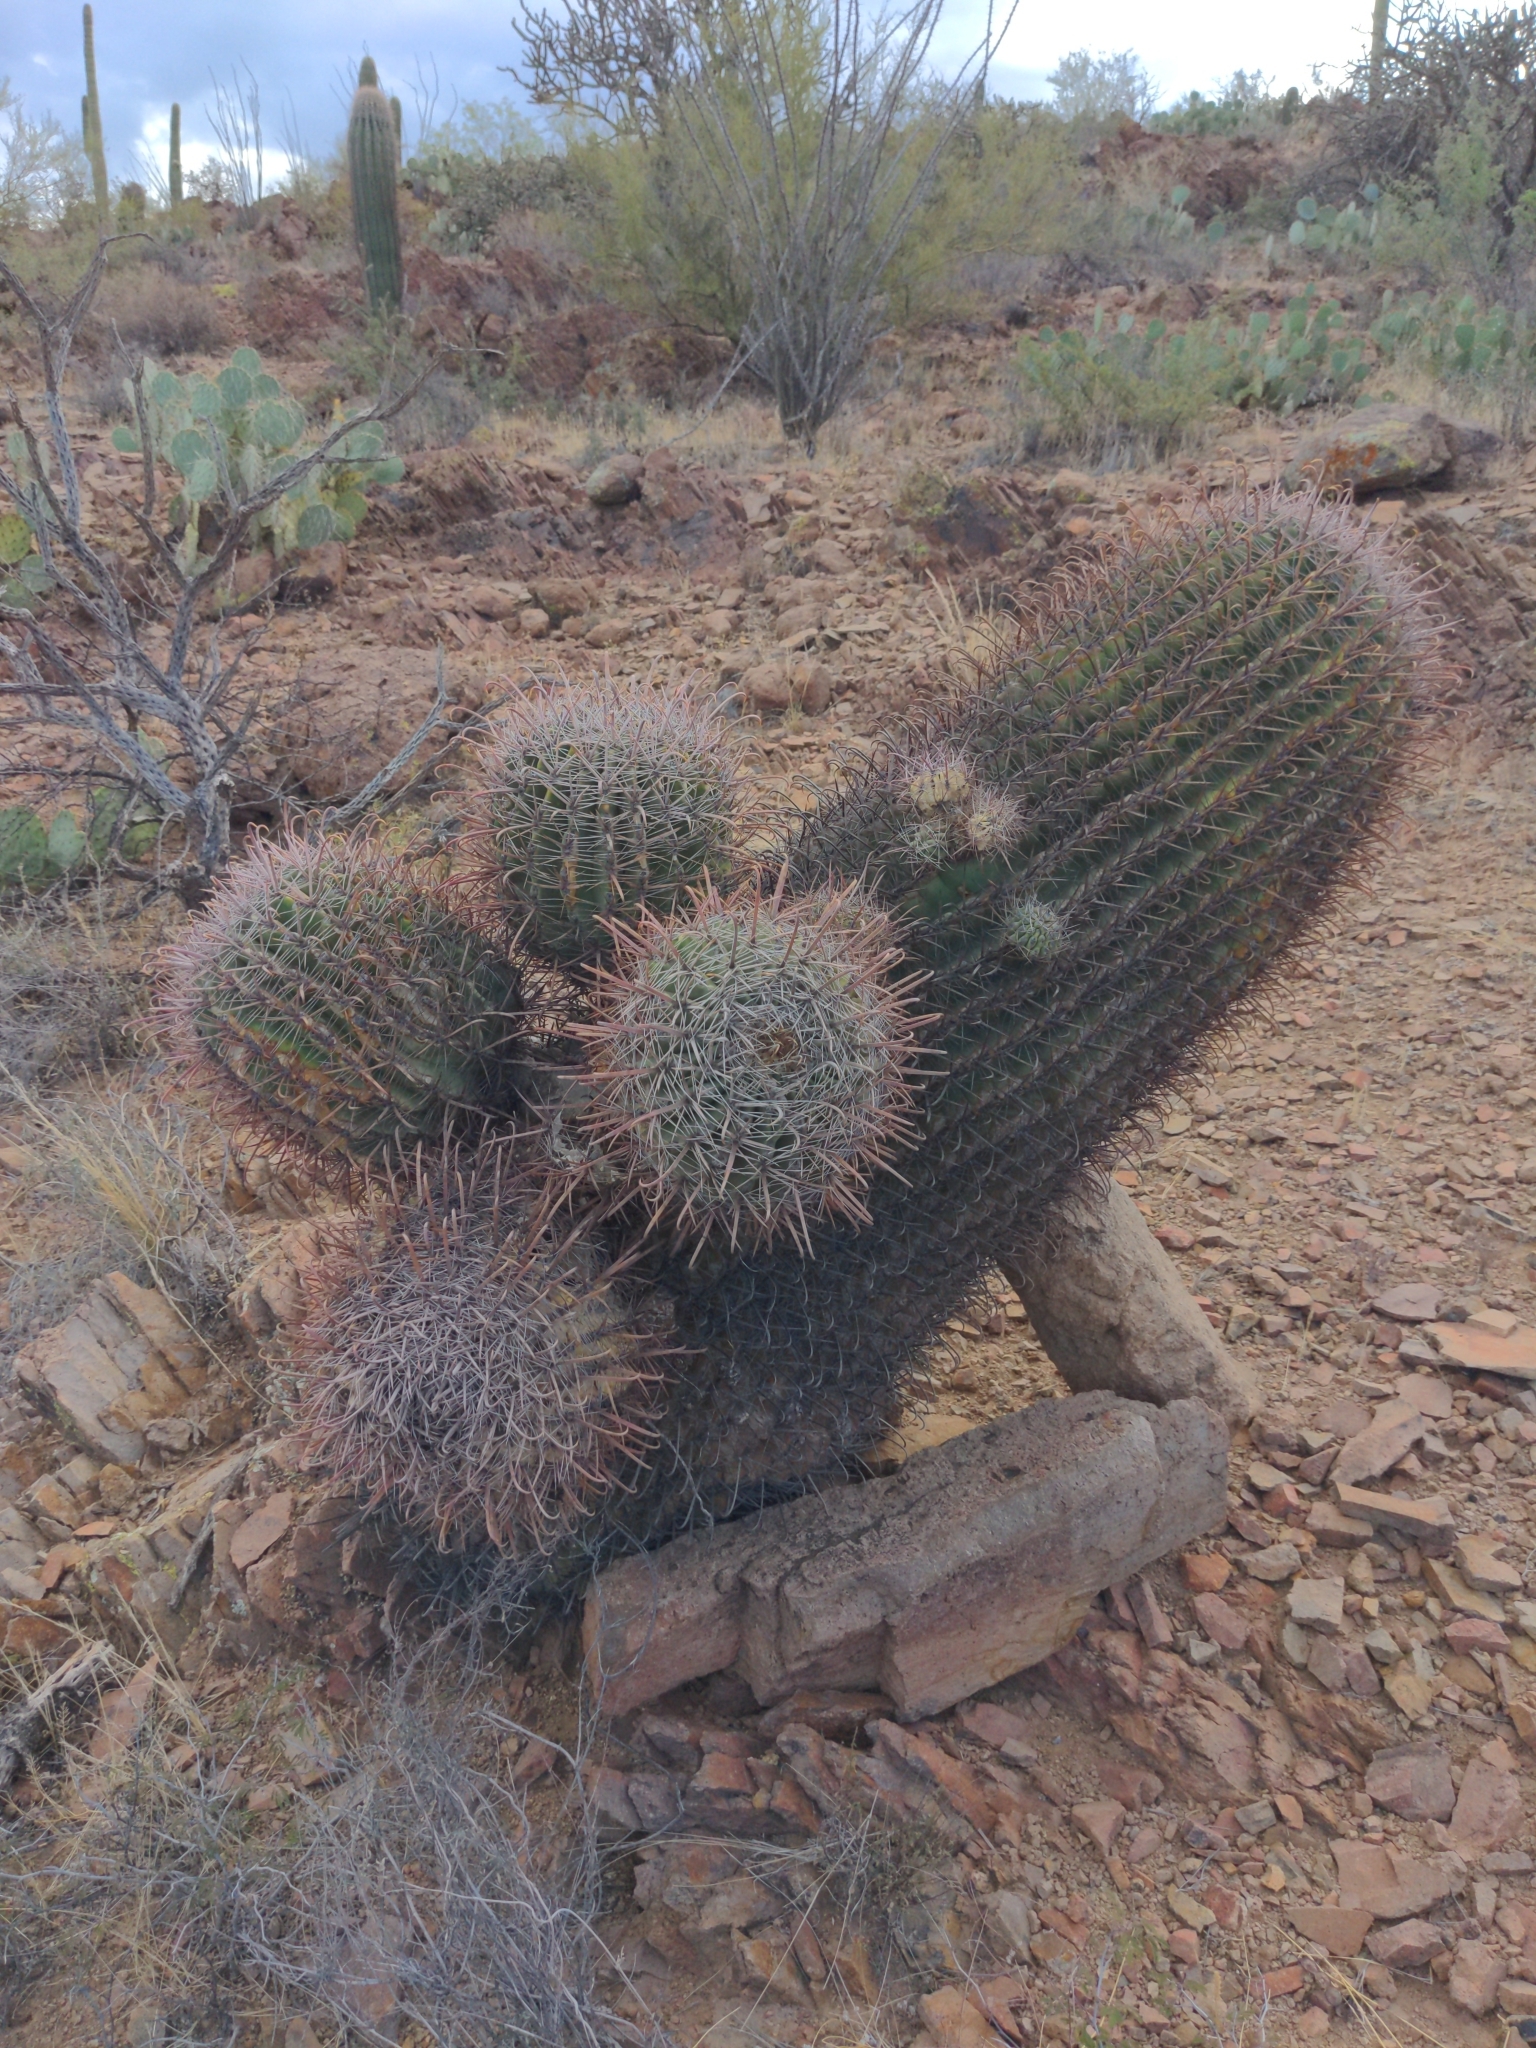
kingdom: Plantae
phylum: Tracheophyta
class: Magnoliopsida
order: Caryophyllales
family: Cactaceae
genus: Ferocactus
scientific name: Ferocactus wislizeni
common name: Candy barrel cactus
